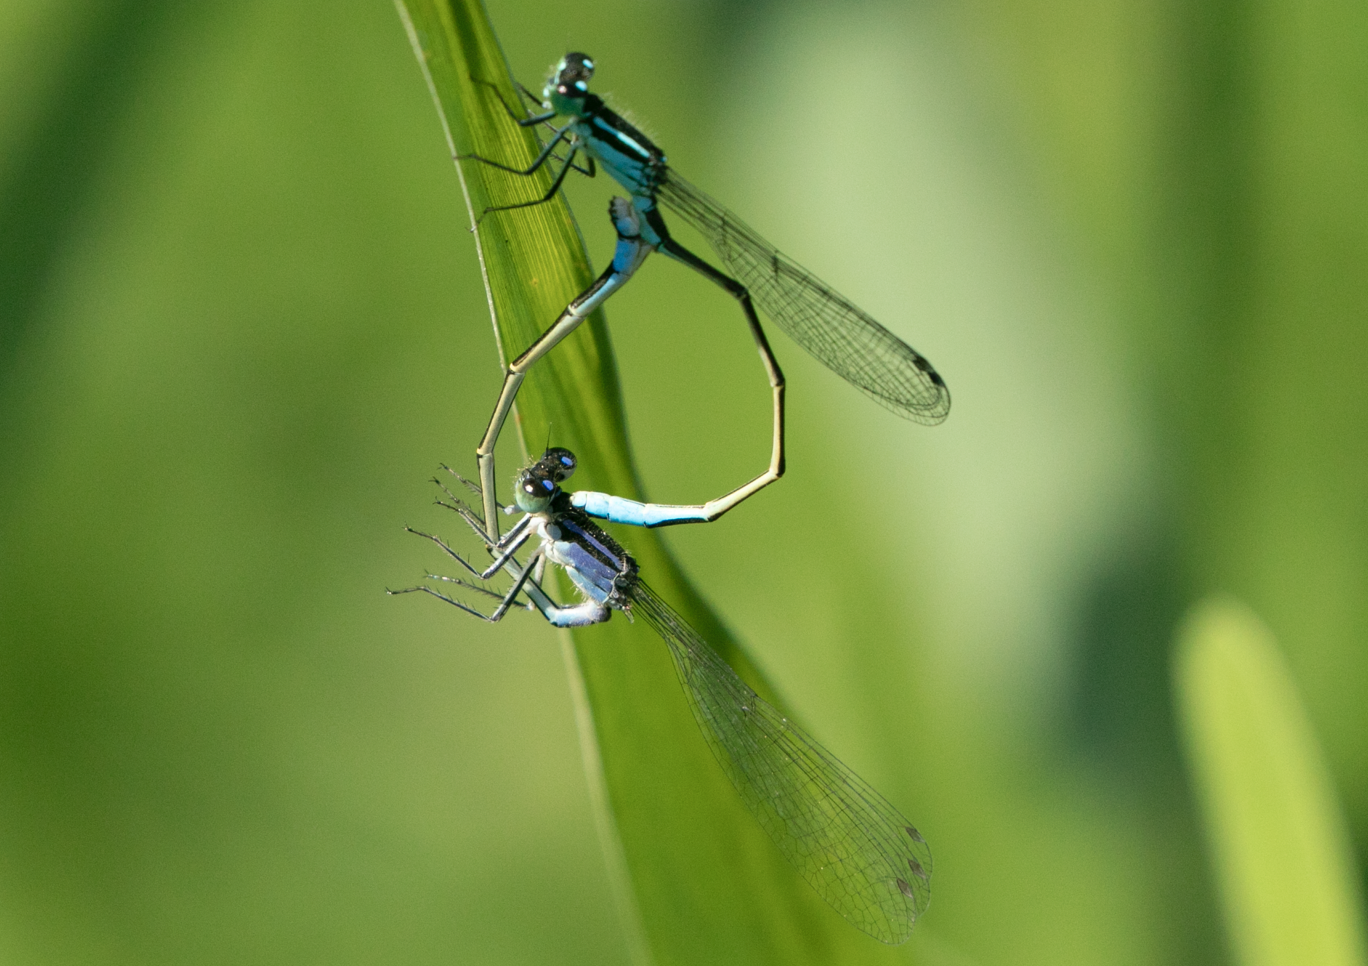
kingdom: Animalia
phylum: Arthropoda
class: Insecta
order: Odonata
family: Coenagrionidae
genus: Ischnura
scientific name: Ischnura elegans
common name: Blue-tailed damselfly
